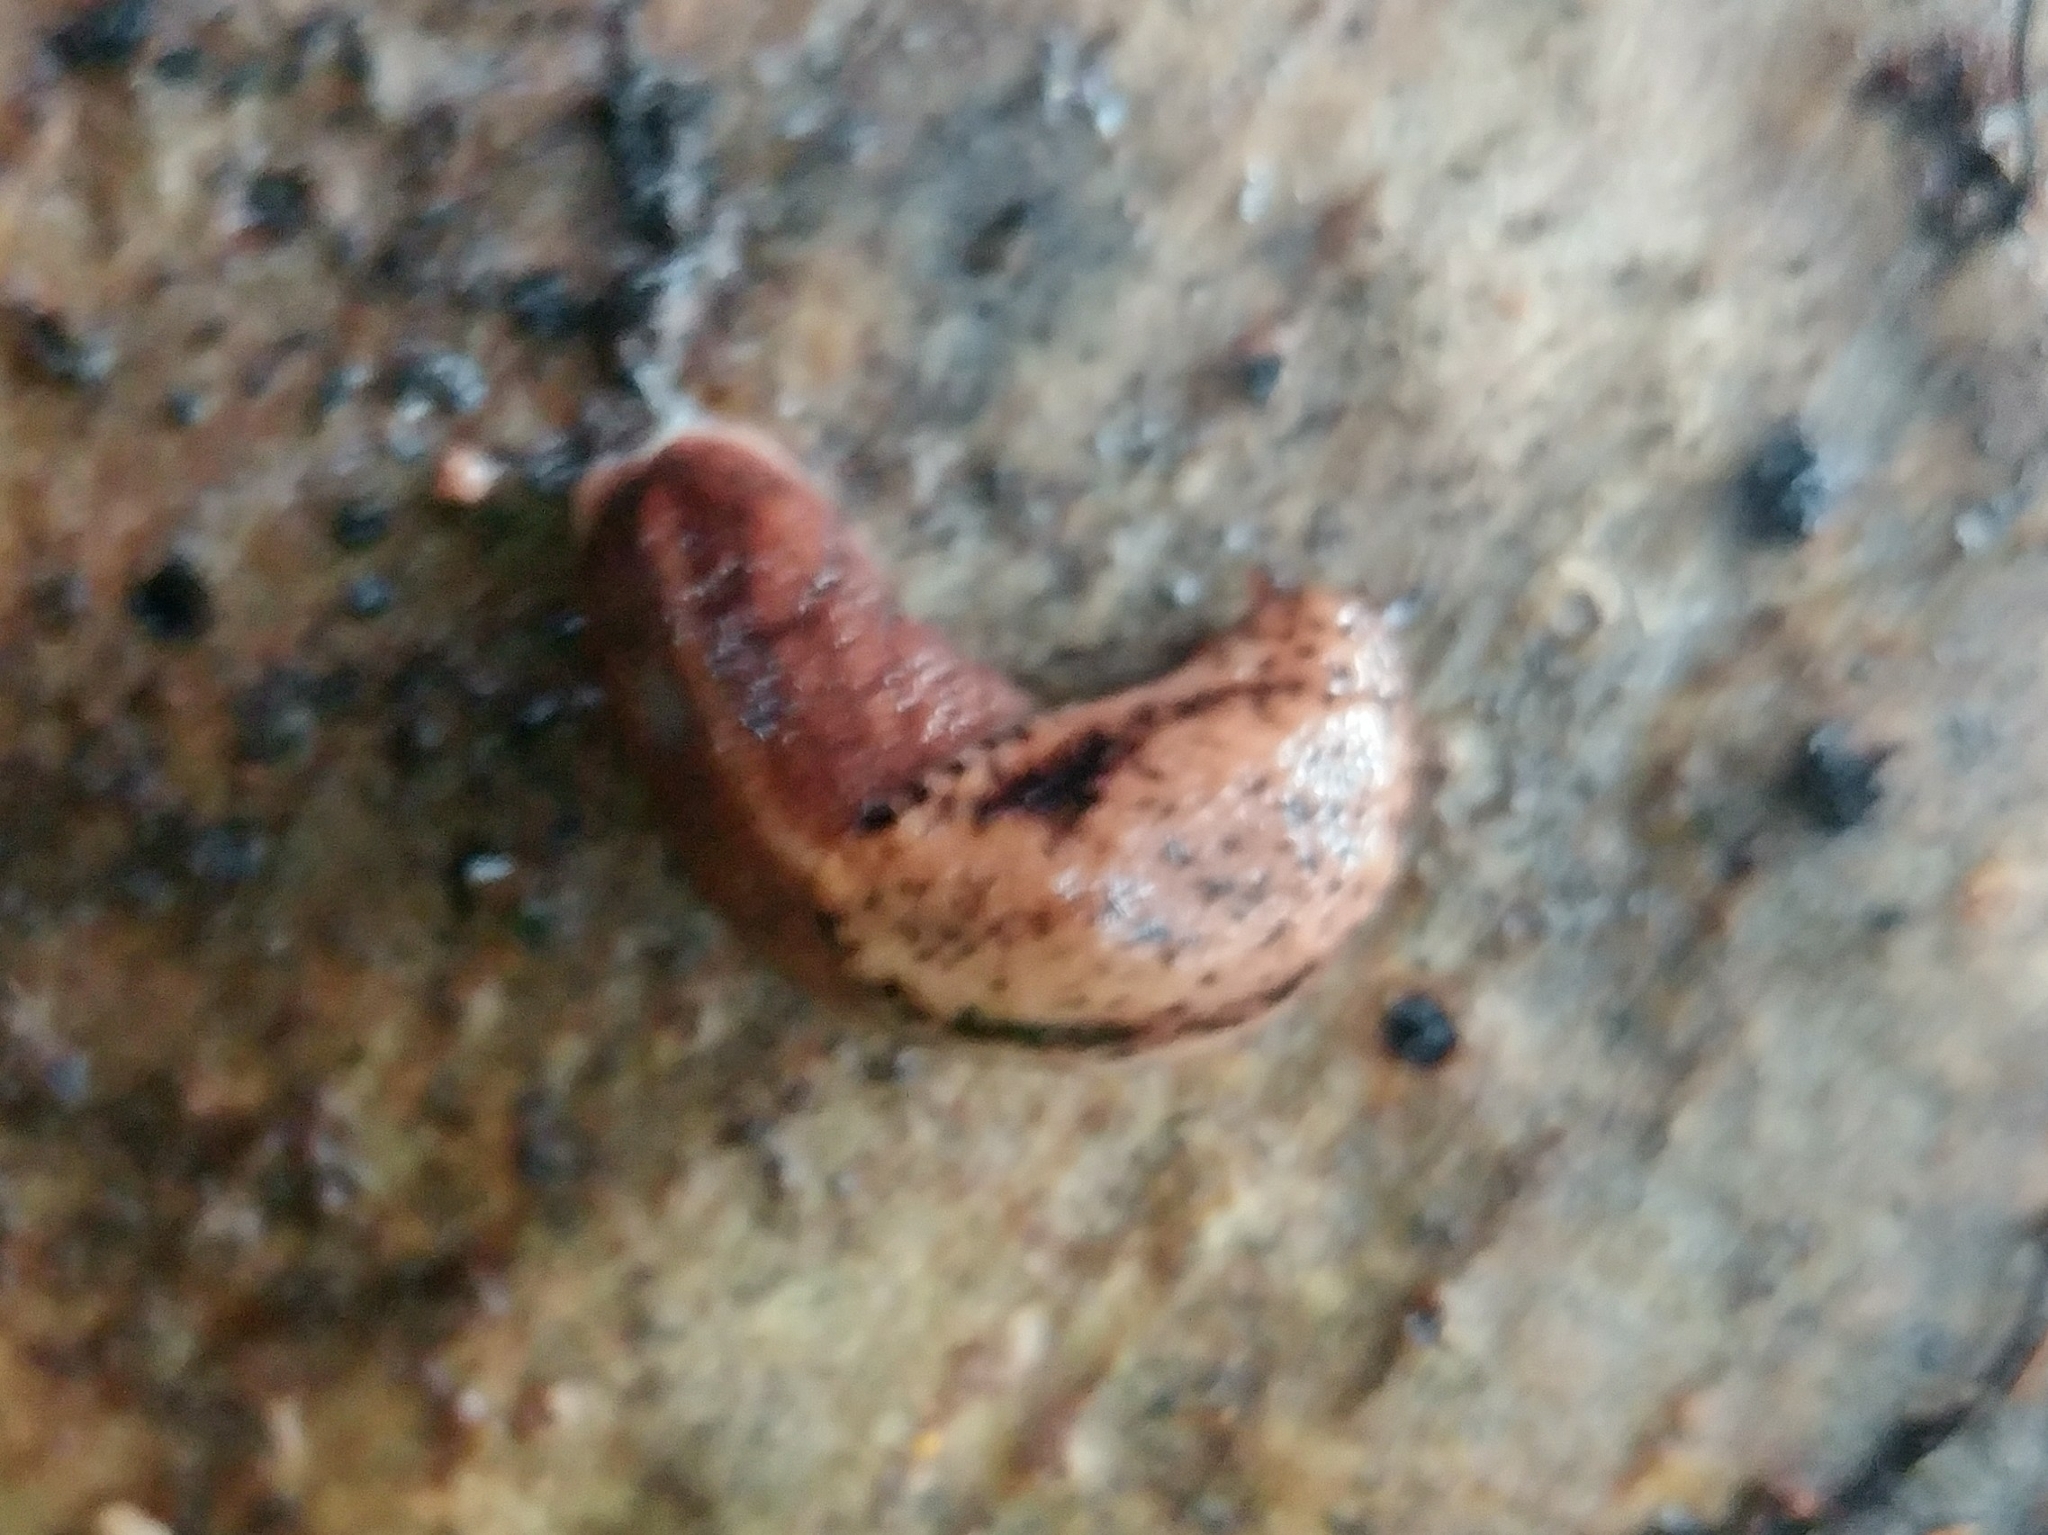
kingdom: Animalia
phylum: Mollusca
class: Gastropoda
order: Stylommatophora
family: Ariolimacidae
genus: Prophysaon
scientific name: Prophysaon andersonii
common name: Reticulate taildropper
